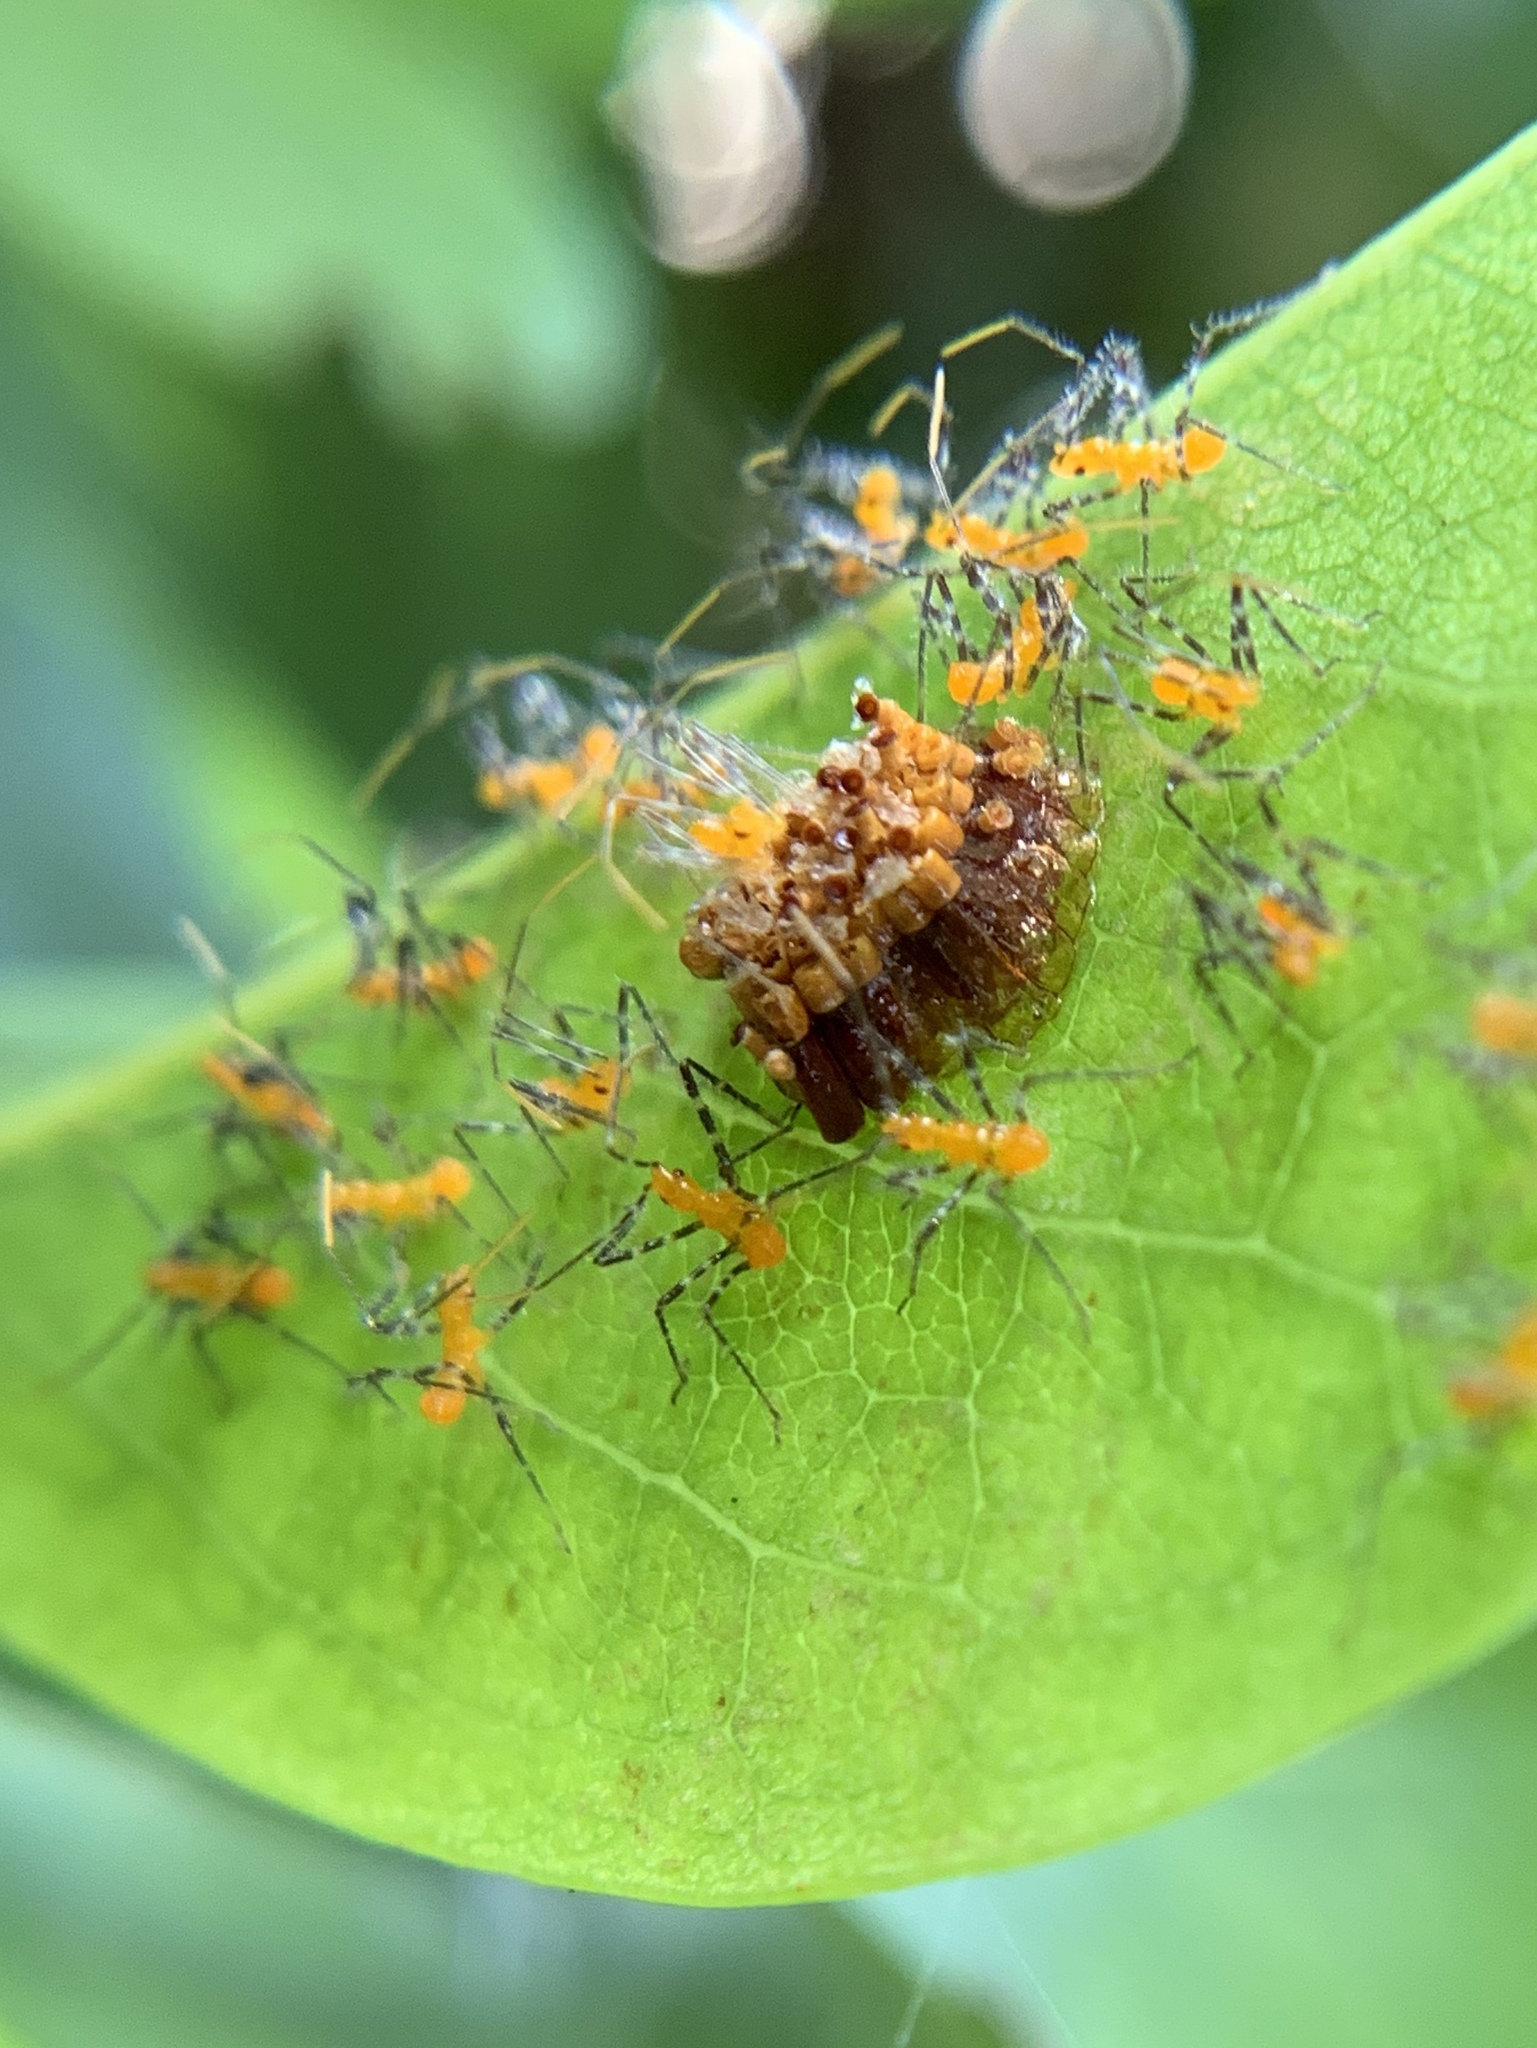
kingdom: Animalia
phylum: Arthropoda
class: Insecta
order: Hemiptera
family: Reduviidae
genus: Zelus
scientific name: Zelus longipes
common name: Milkweed assassin bug
